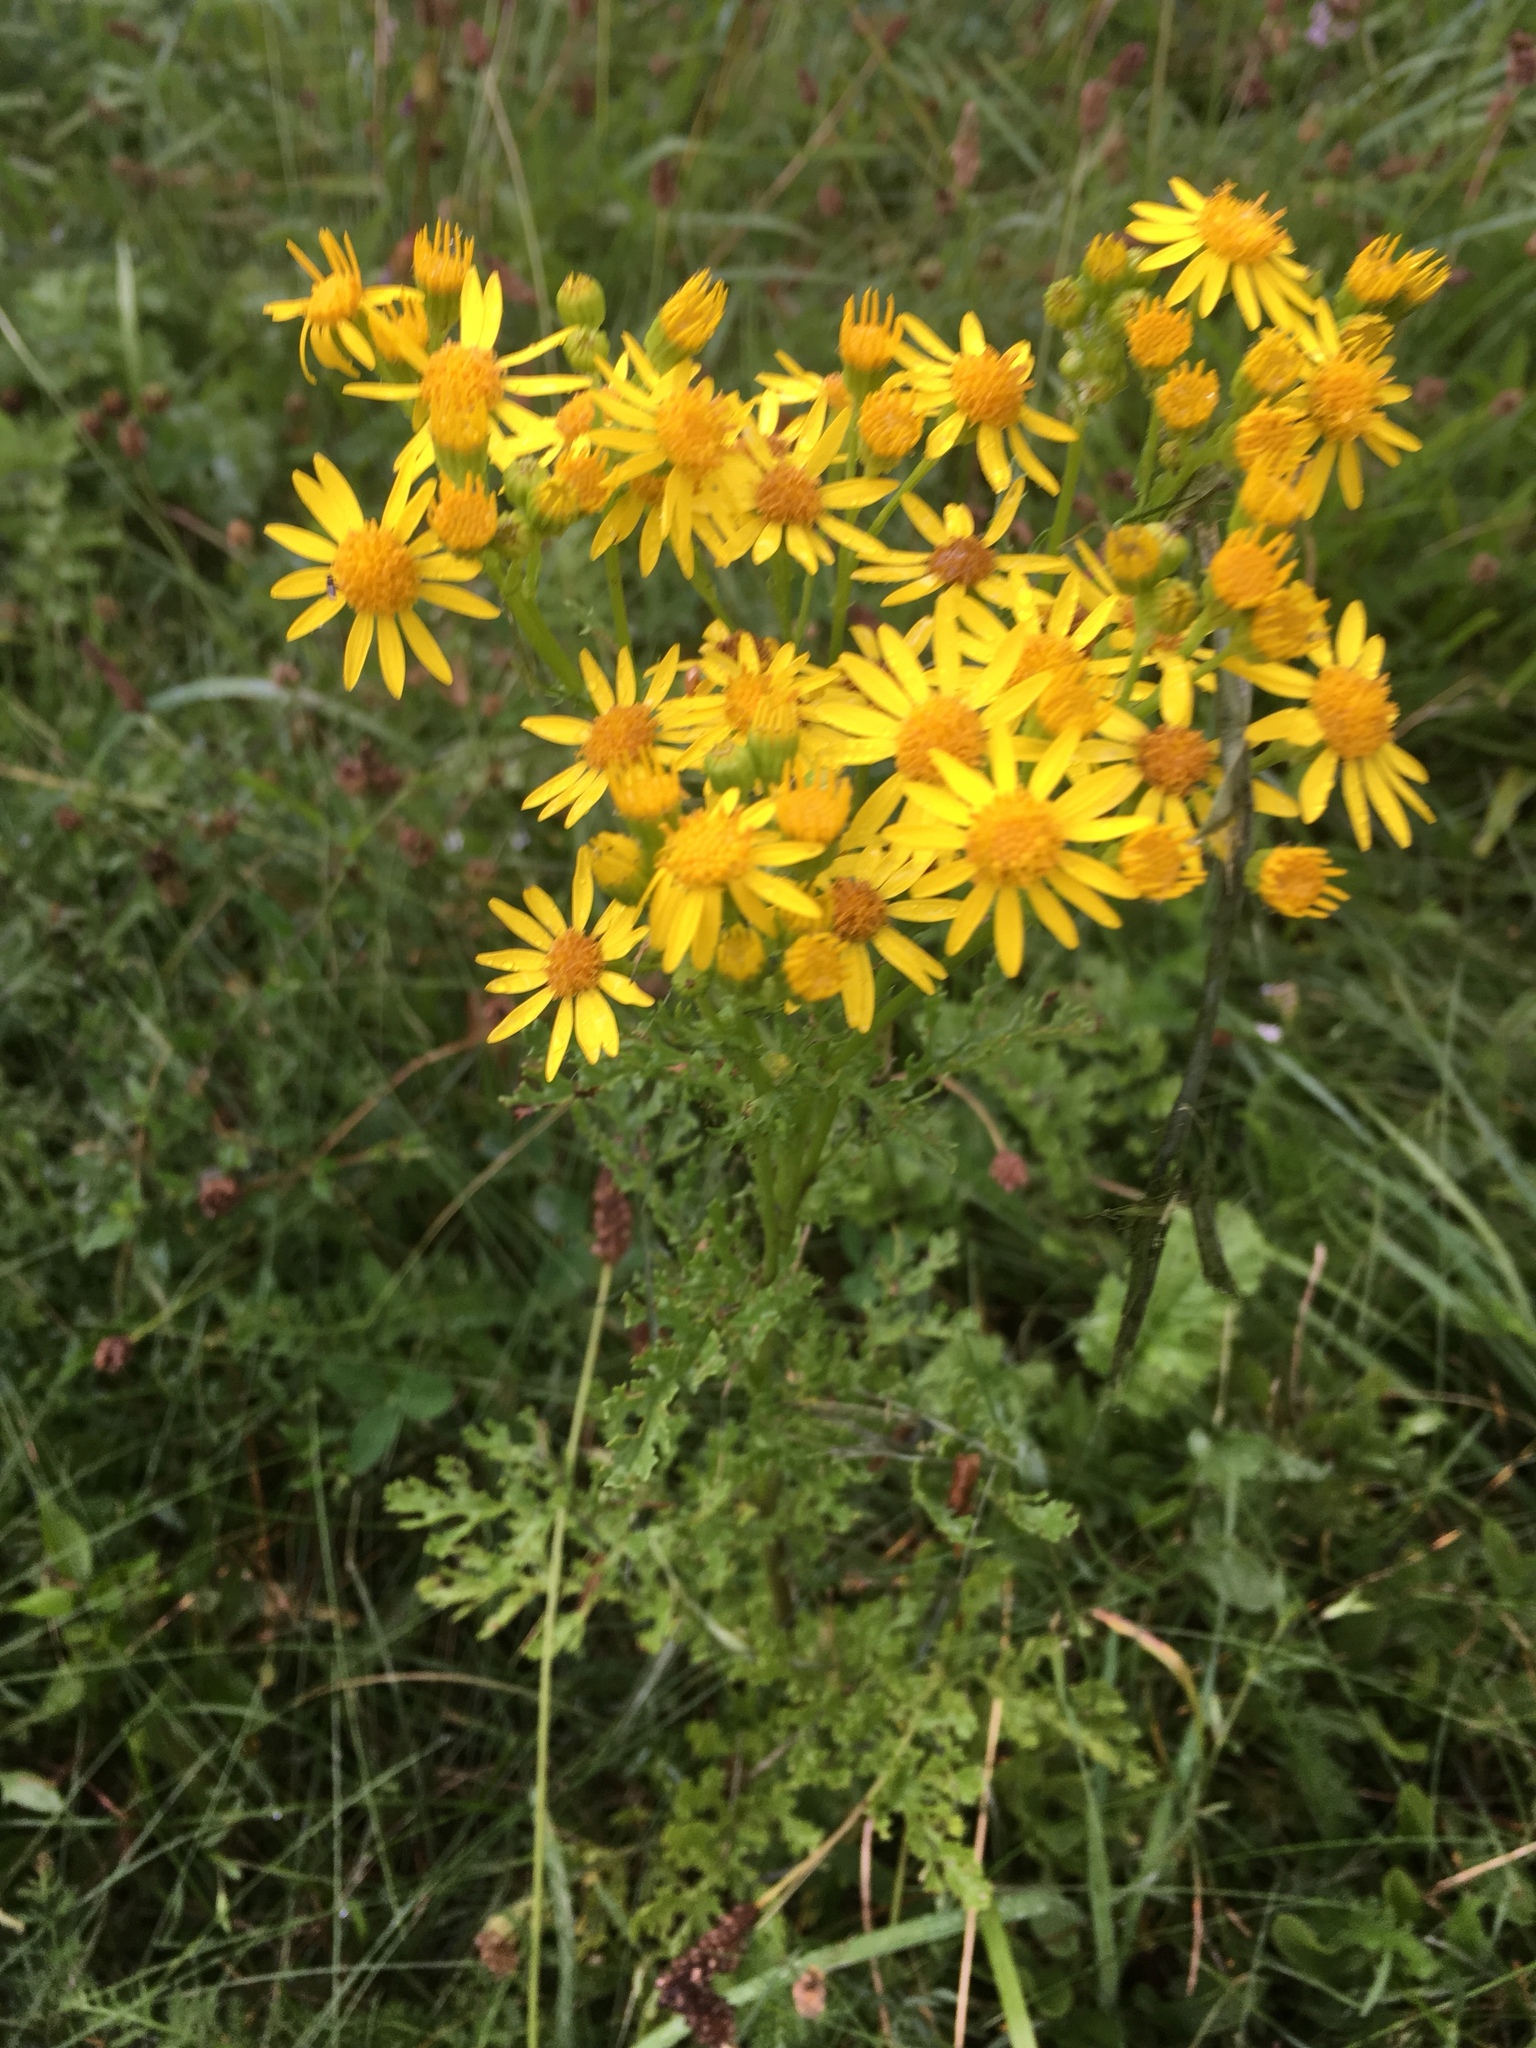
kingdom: Plantae
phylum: Tracheophyta
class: Magnoliopsida
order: Asterales
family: Asteraceae
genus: Jacobaea
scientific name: Jacobaea vulgaris
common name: Stinking willie
